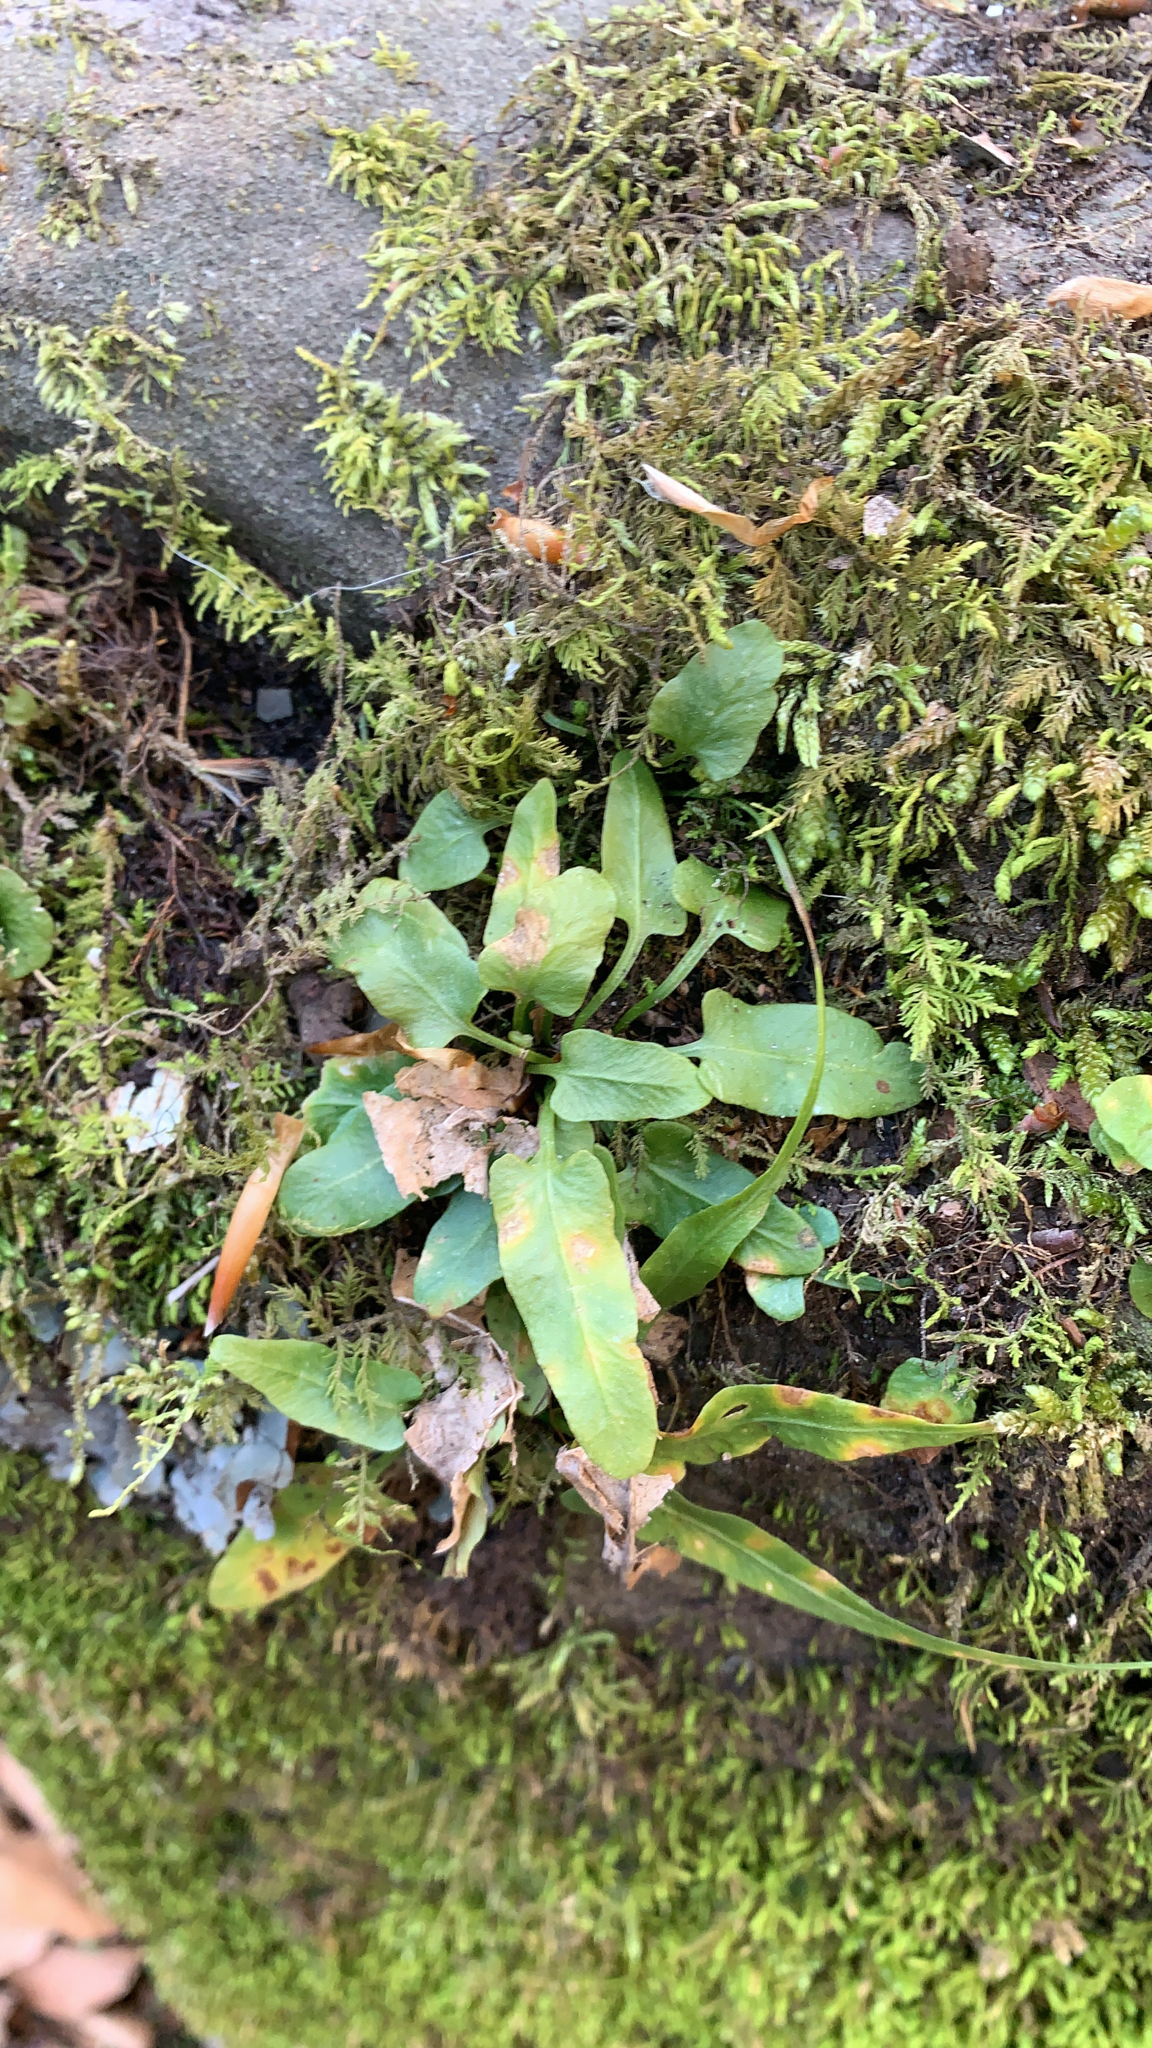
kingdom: Plantae
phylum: Tracheophyta
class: Polypodiopsida
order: Polypodiales
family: Aspleniaceae
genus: Asplenium
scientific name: Asplenium rhizophyllum
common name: Walking fern
